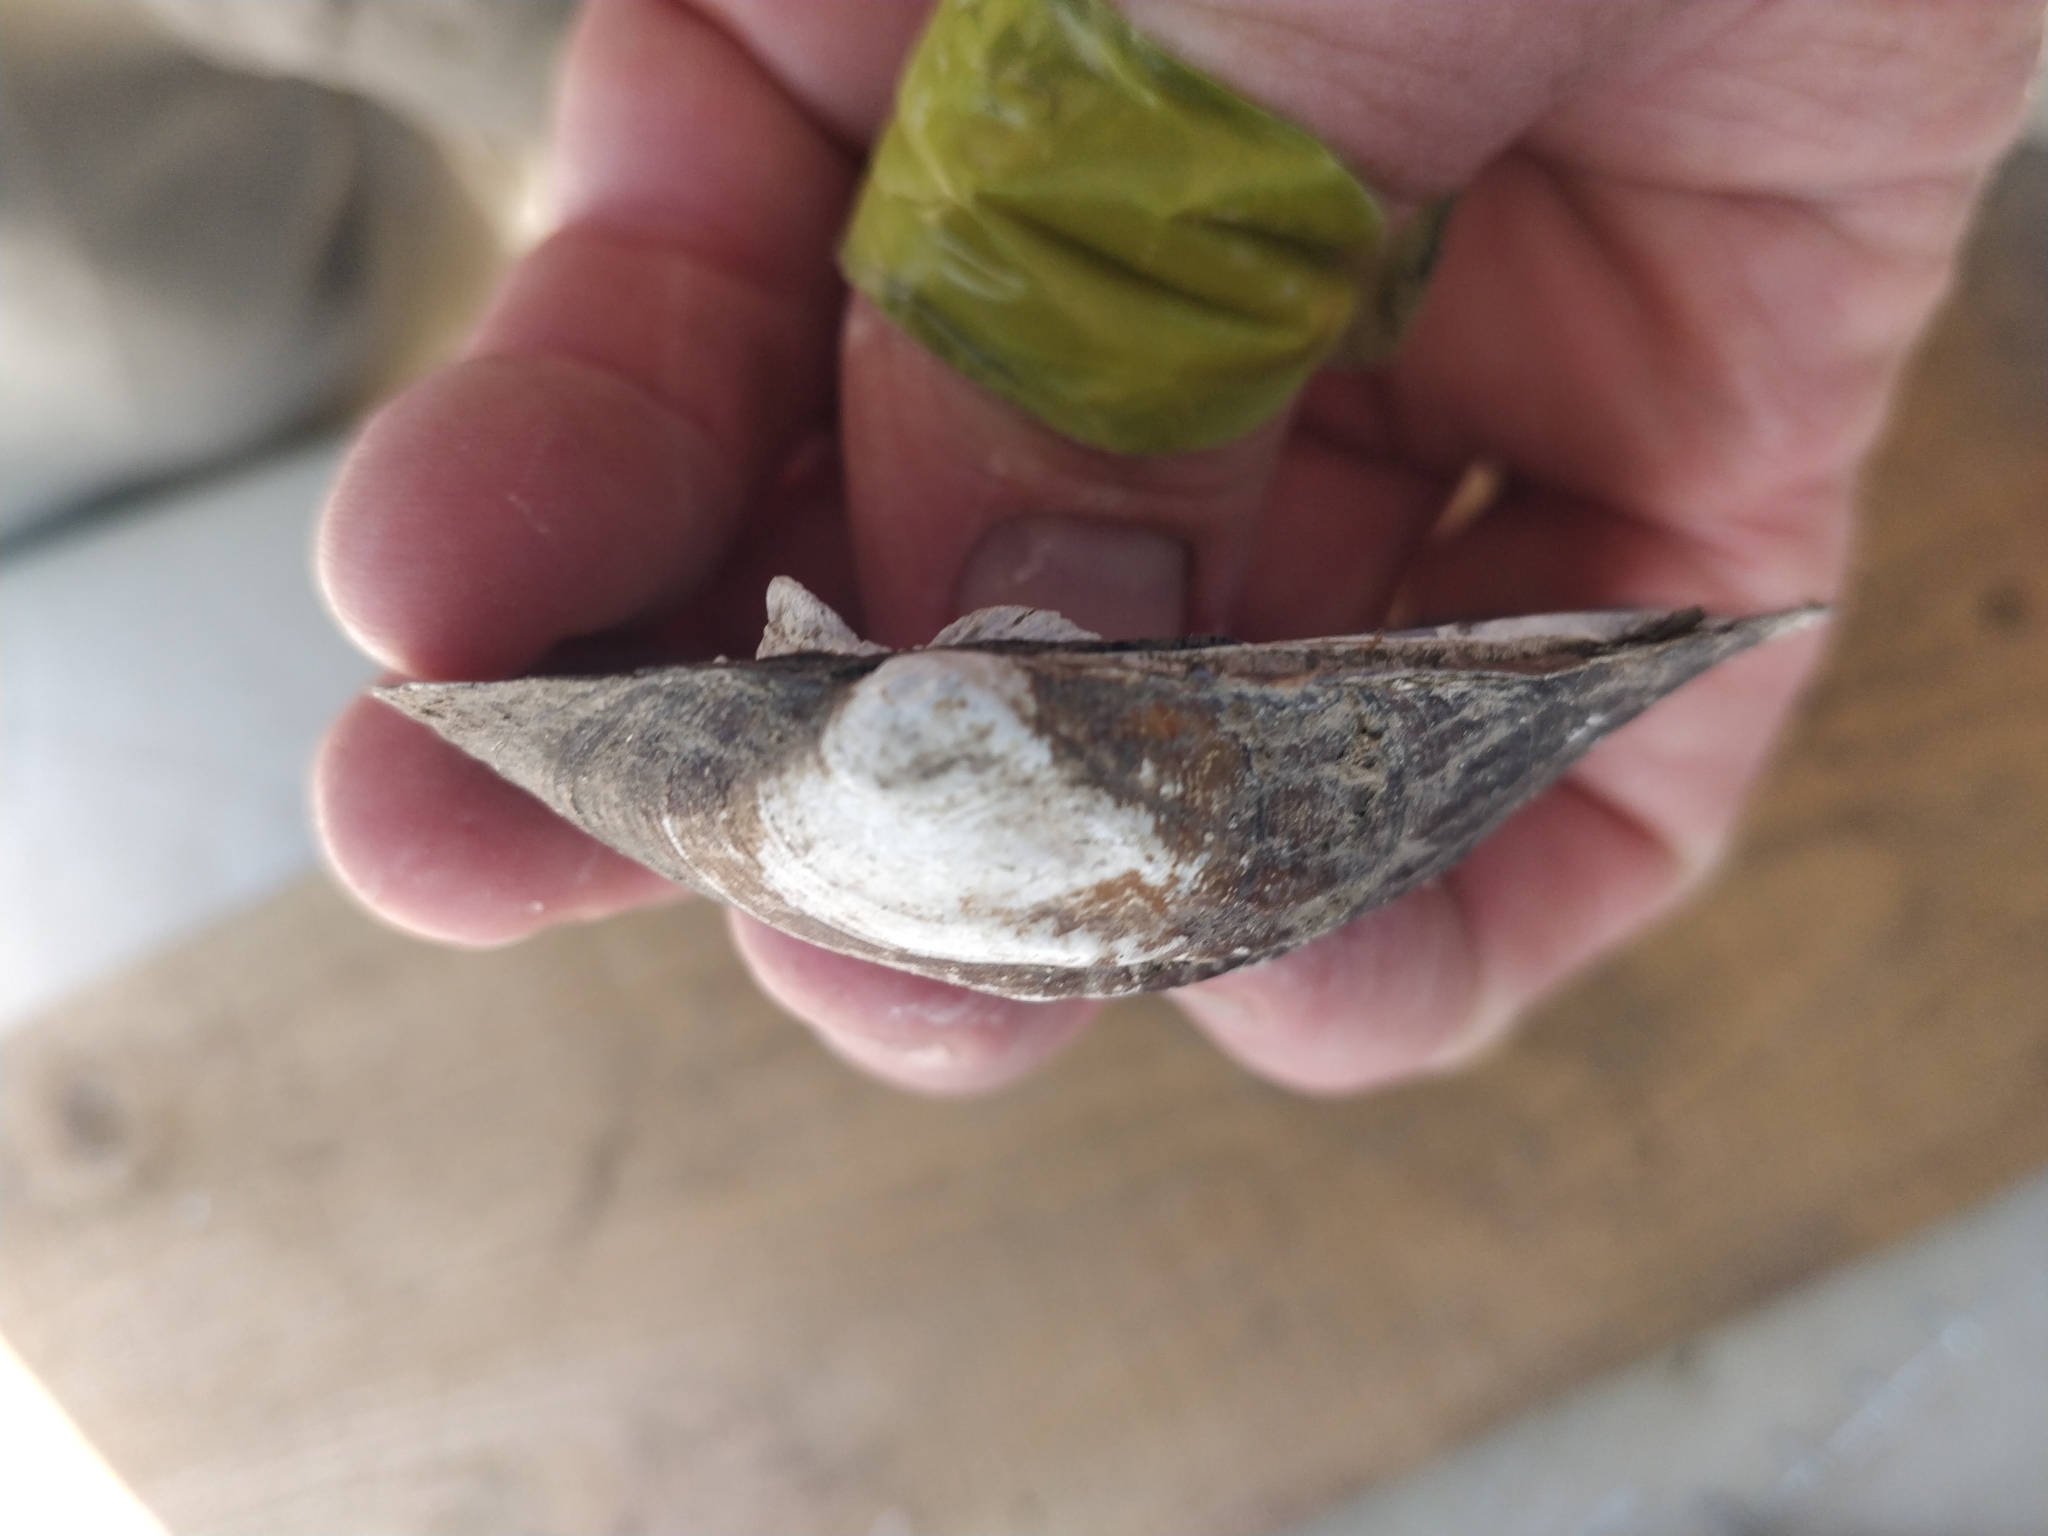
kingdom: Animalia
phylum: Mollusca
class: Bivalvia
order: Unionida
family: Unionidae
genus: Amblema
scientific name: Amblema plicata
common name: Threeridge
